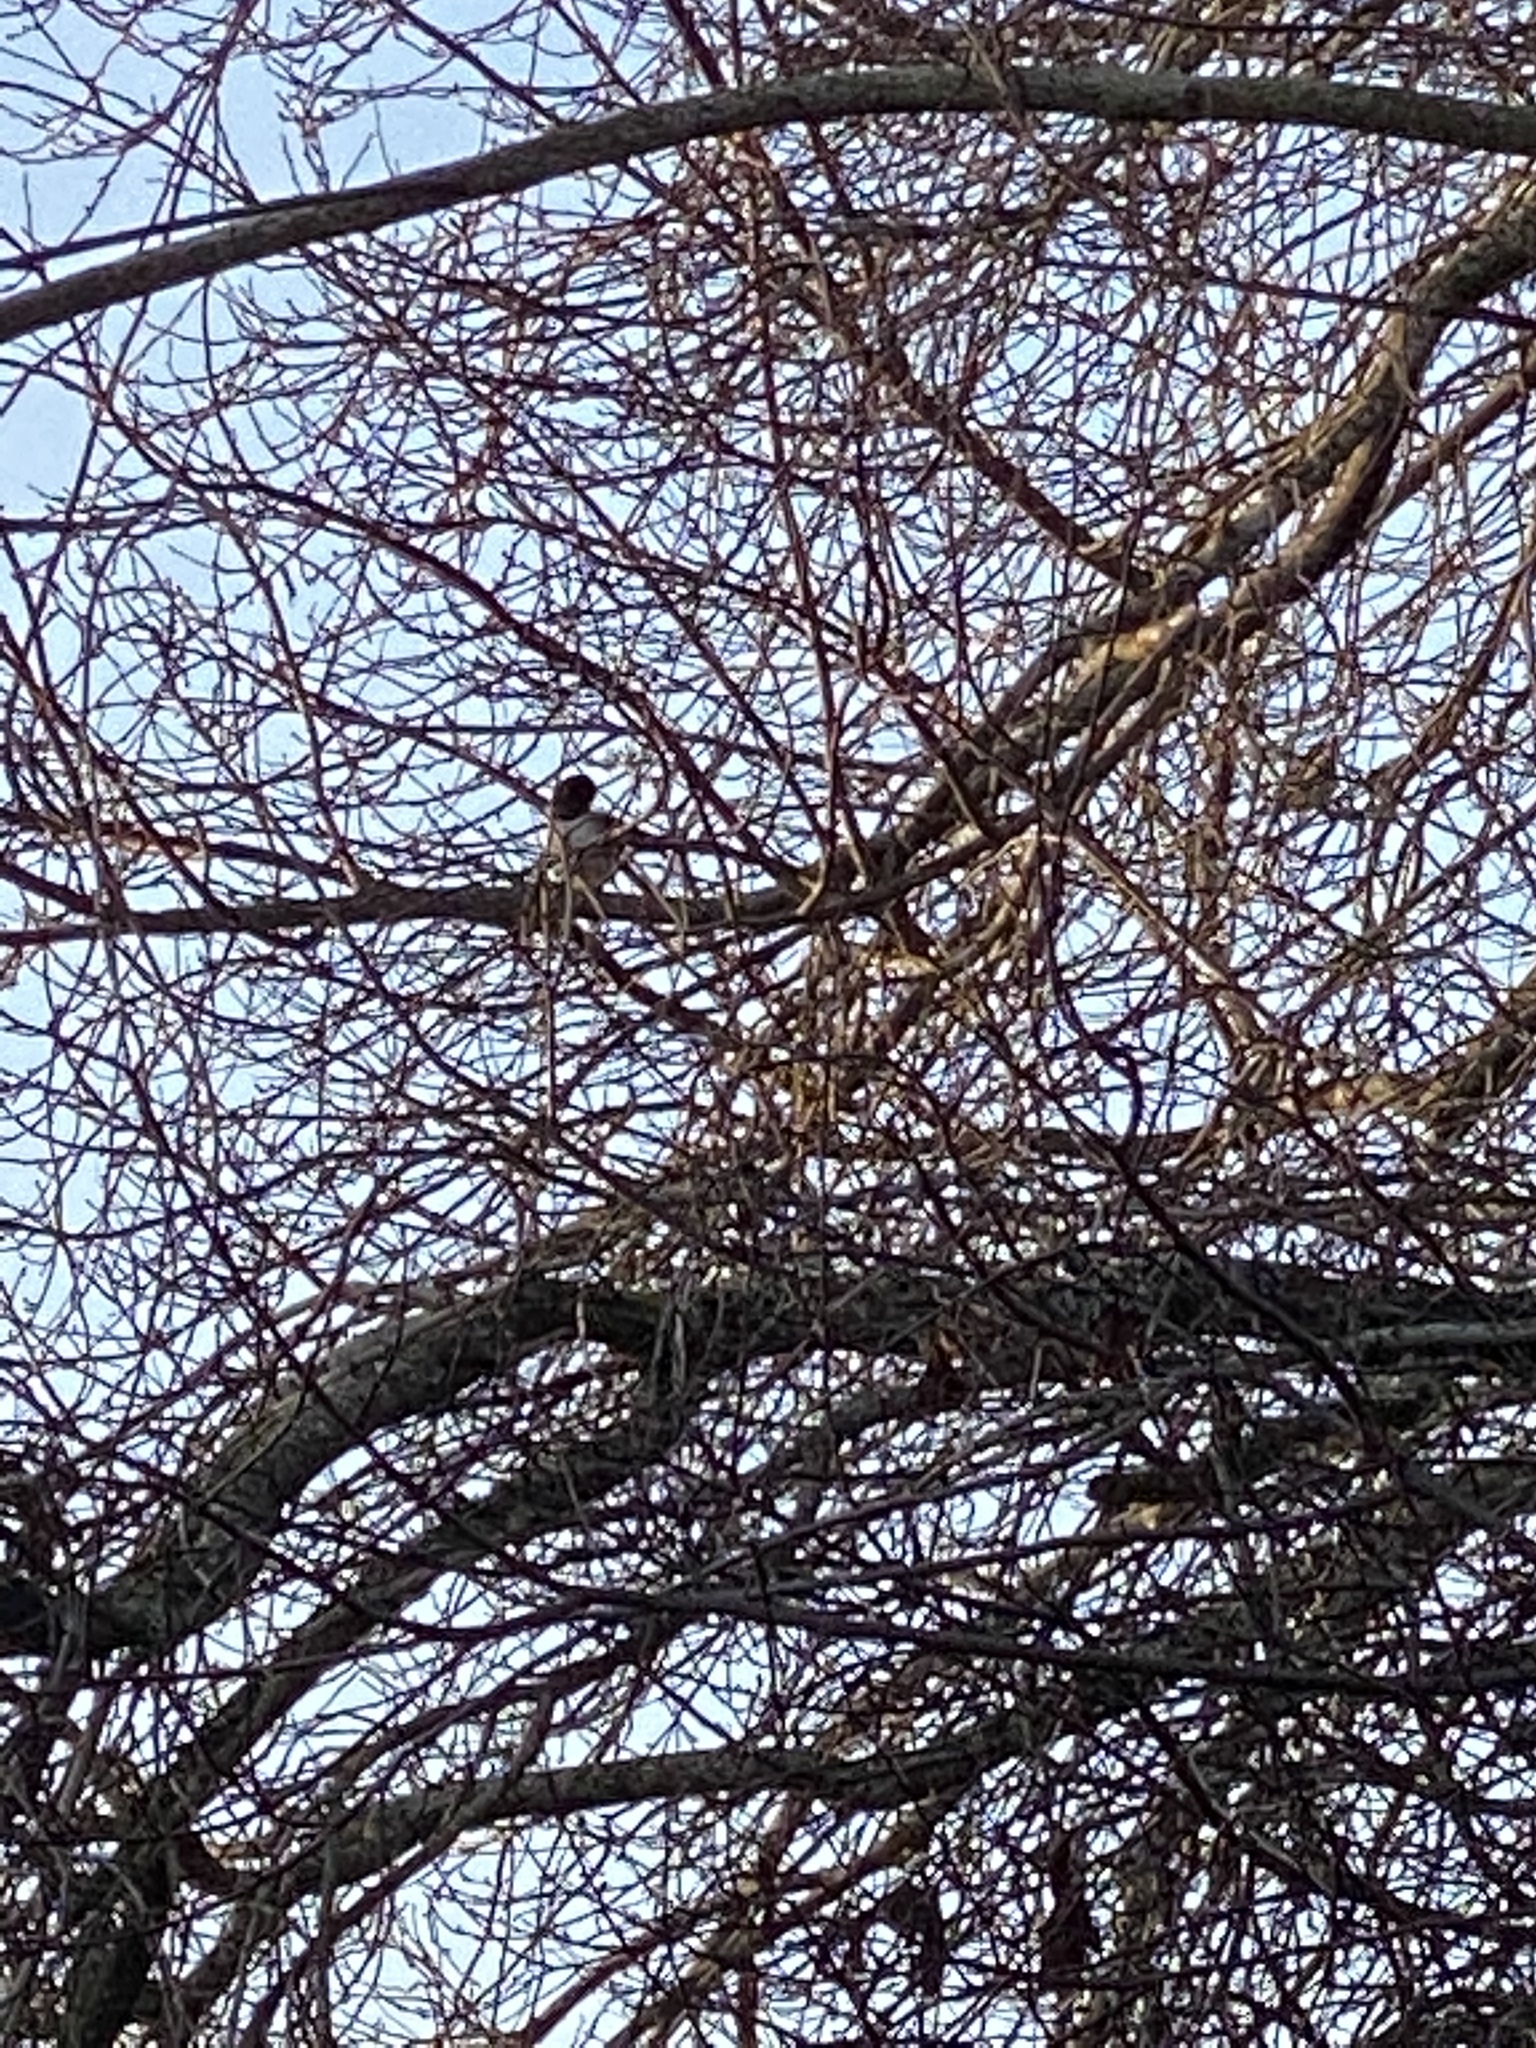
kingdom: Animalia
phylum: Chordata
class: Aves
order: Passeriformes
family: Passerellidae
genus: Junco
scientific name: Junco hyemalis
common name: Dark-eyed junco
